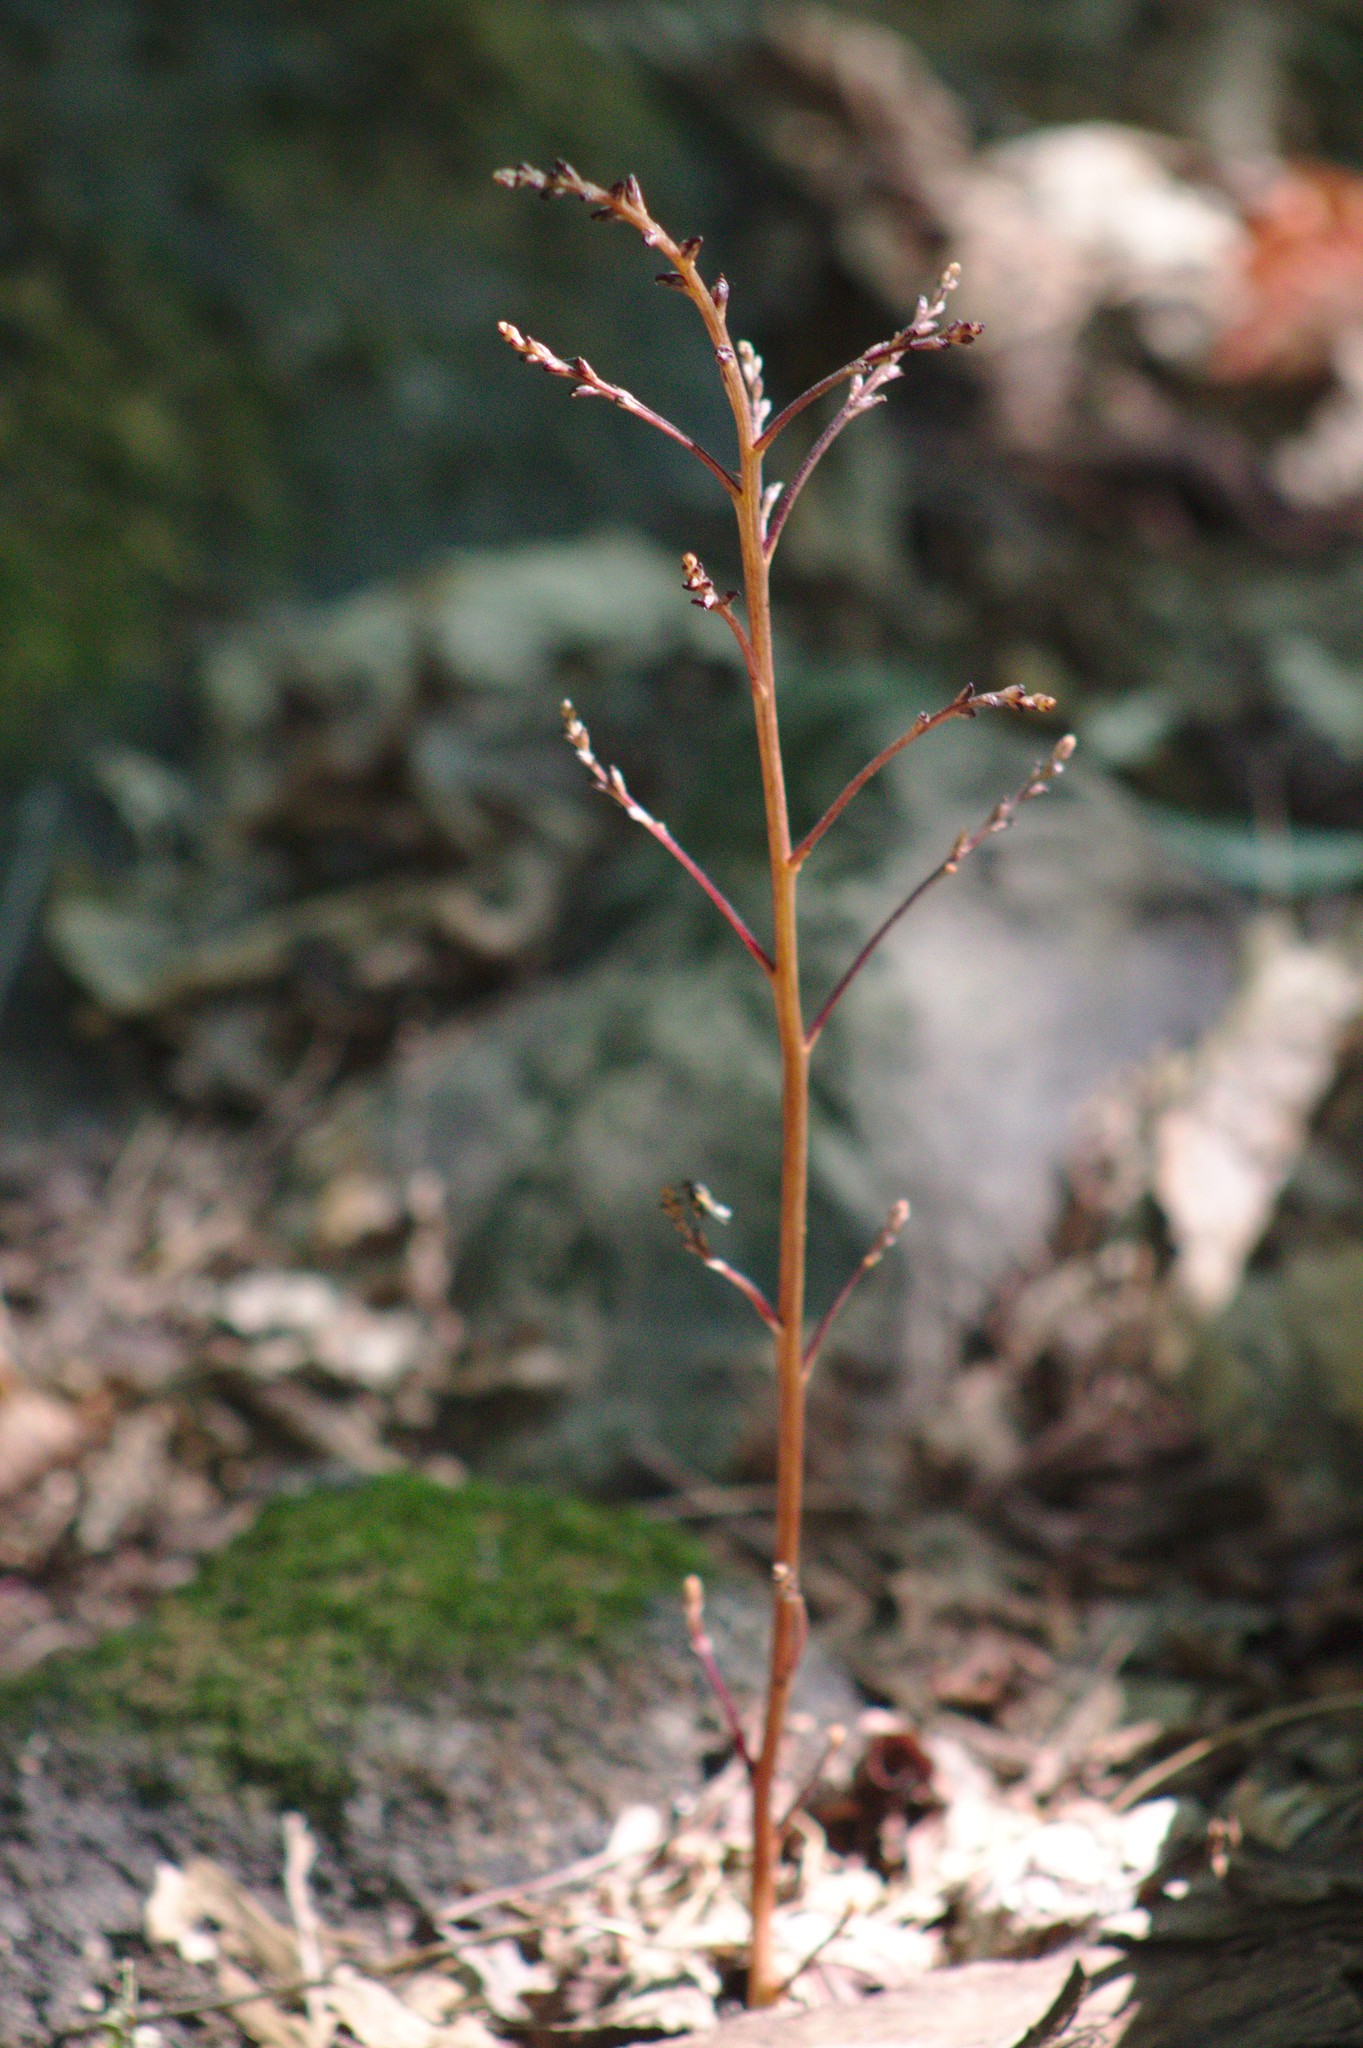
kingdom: Plantae
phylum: Tracheophyta
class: Magnoliopsida
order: Lamiales
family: Orobanchaceae
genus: Epifagus
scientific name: Epifagus virginiana
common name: Beechdrops
